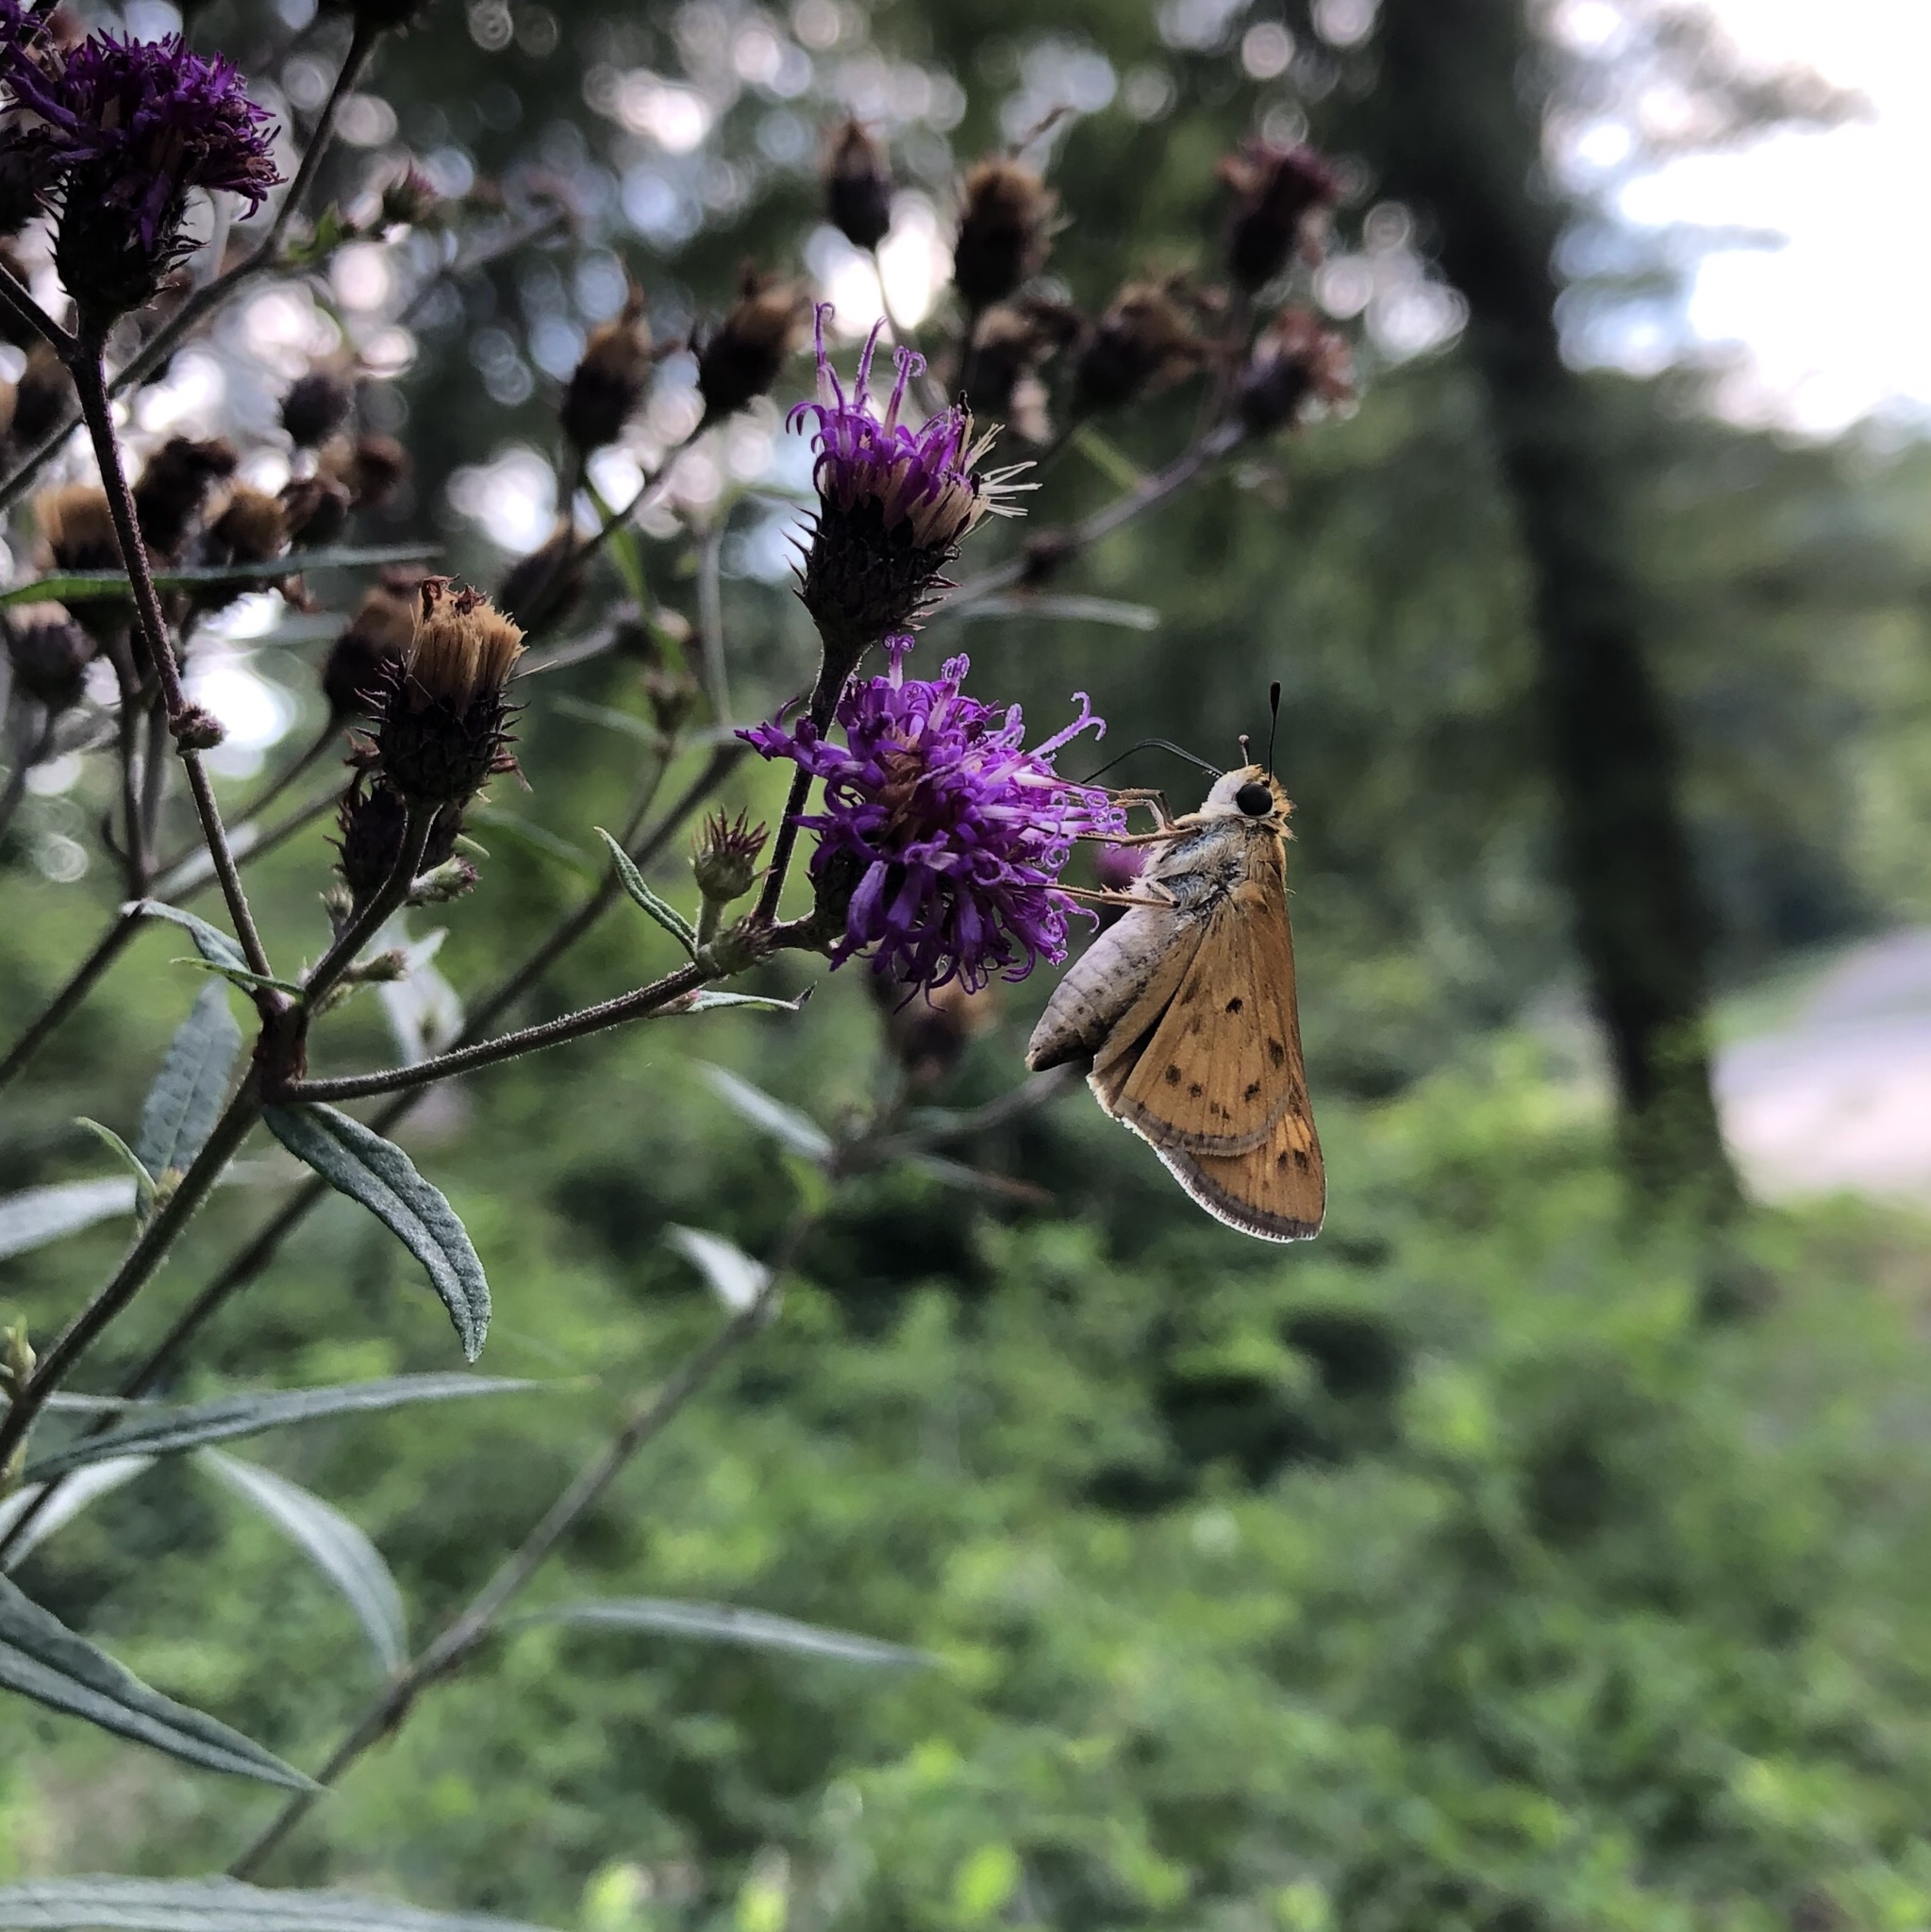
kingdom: Animalia
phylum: Arthropoda
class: Insecta
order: Lepidoptera
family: Hesperiidae
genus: Hylephila
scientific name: Hylephila phyleus
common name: Fiery skipper
